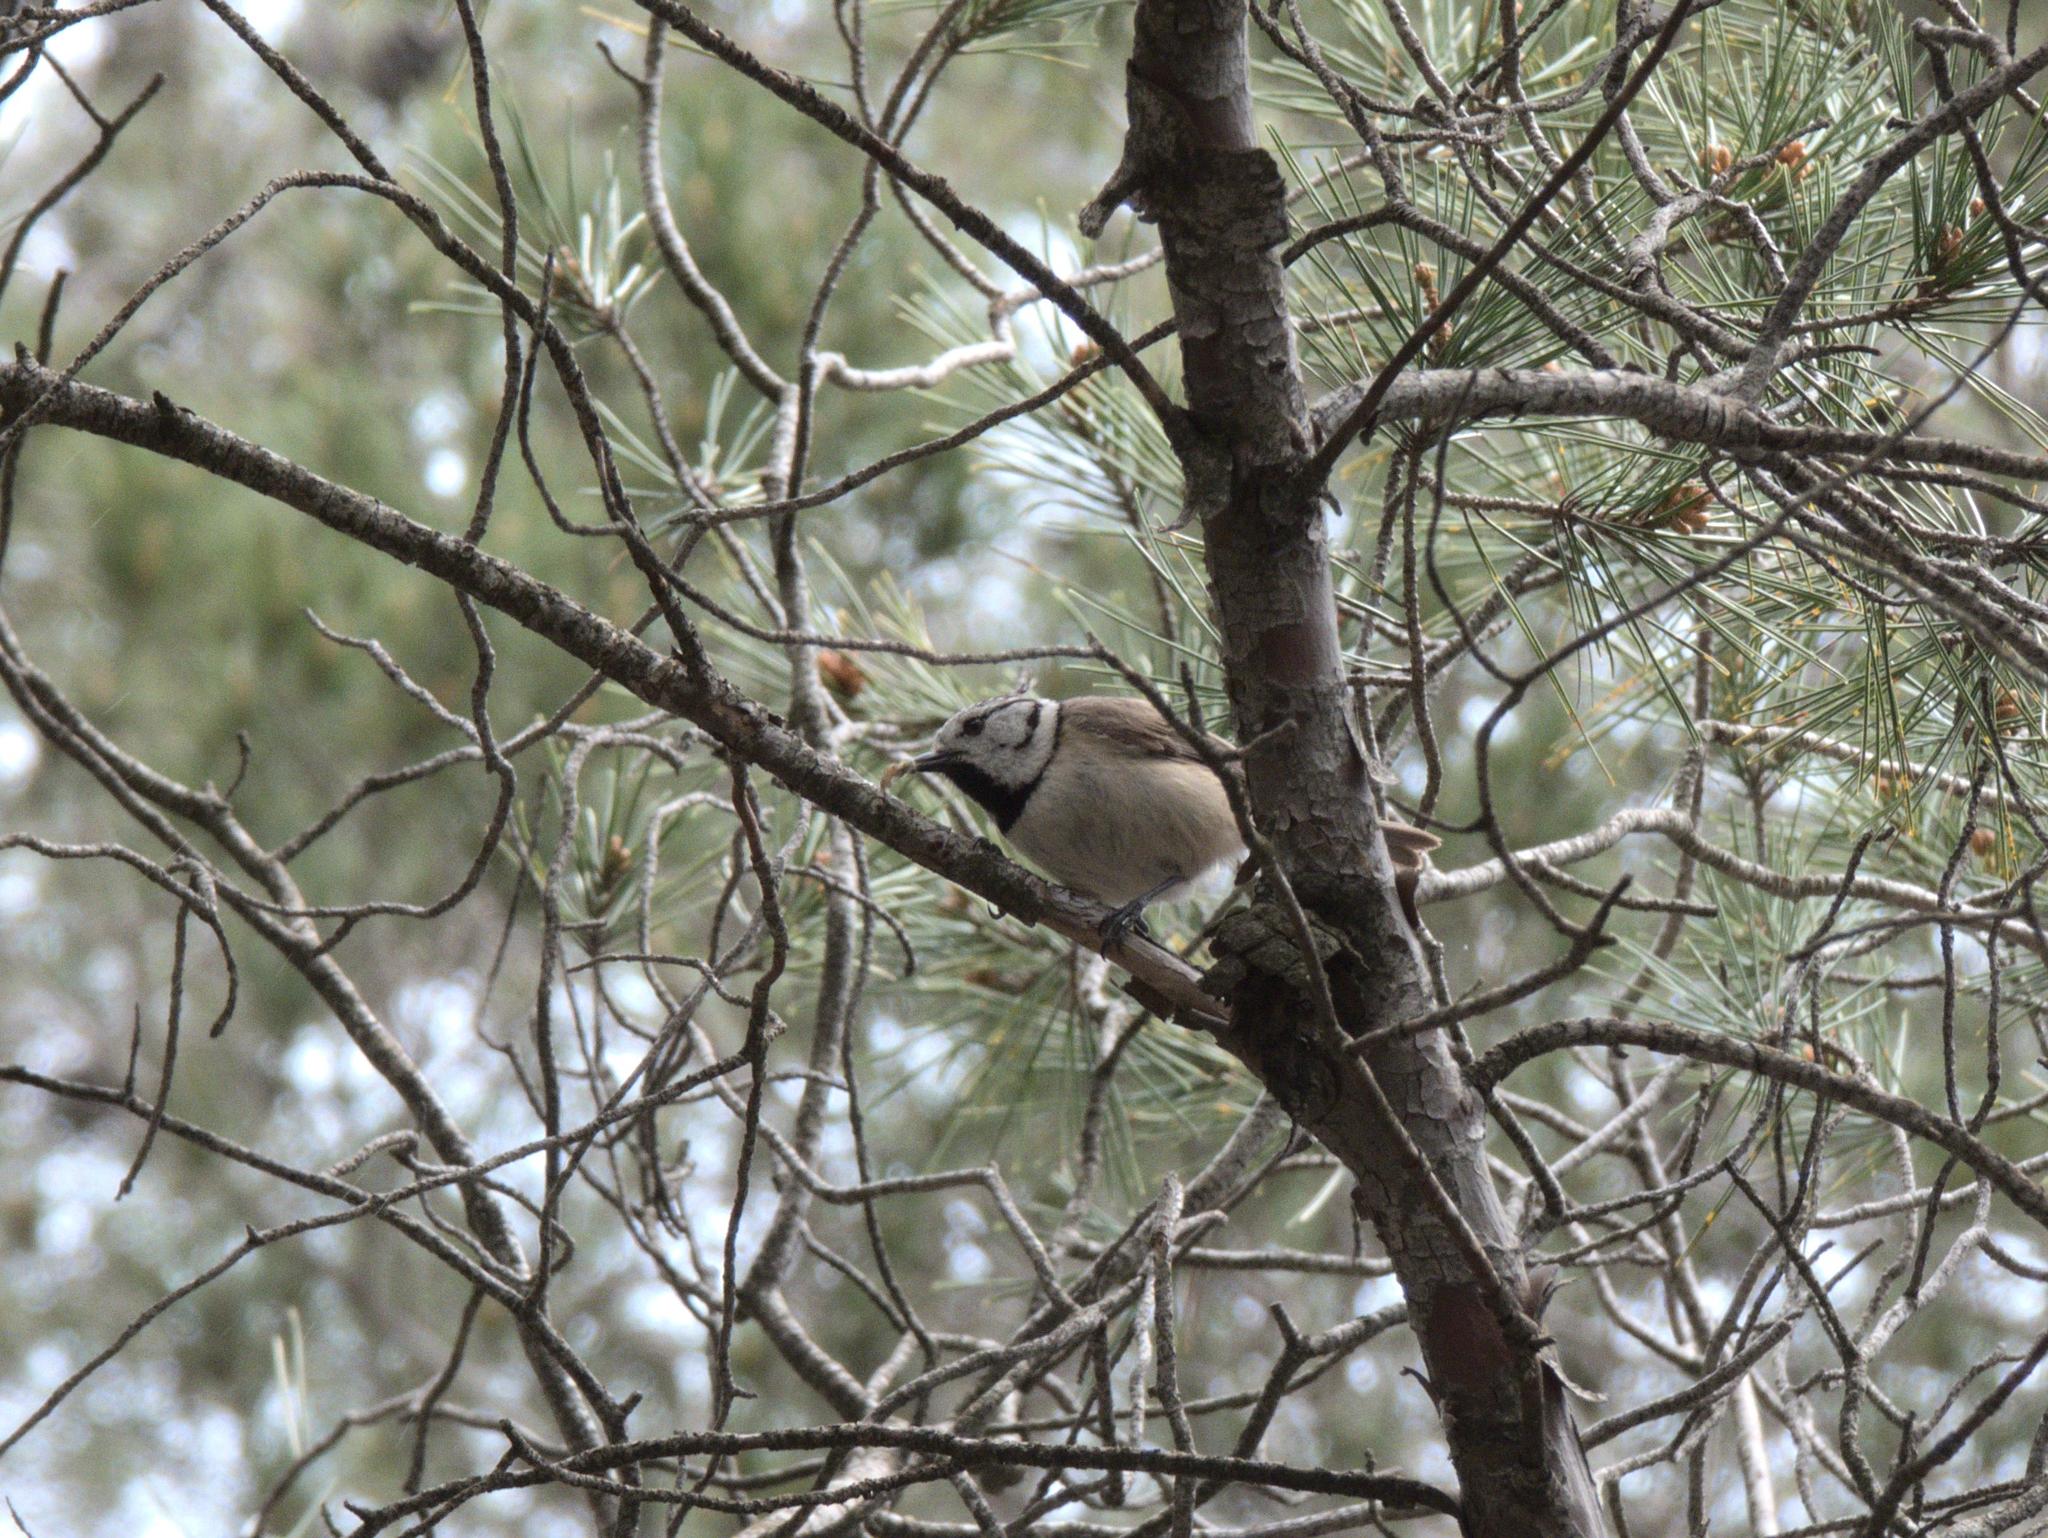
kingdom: Animalia
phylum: Chordata
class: Aves
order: Passeriformes
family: Paridae
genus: Lophophanes
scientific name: Lophophanes cristatus
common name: European crested tit
